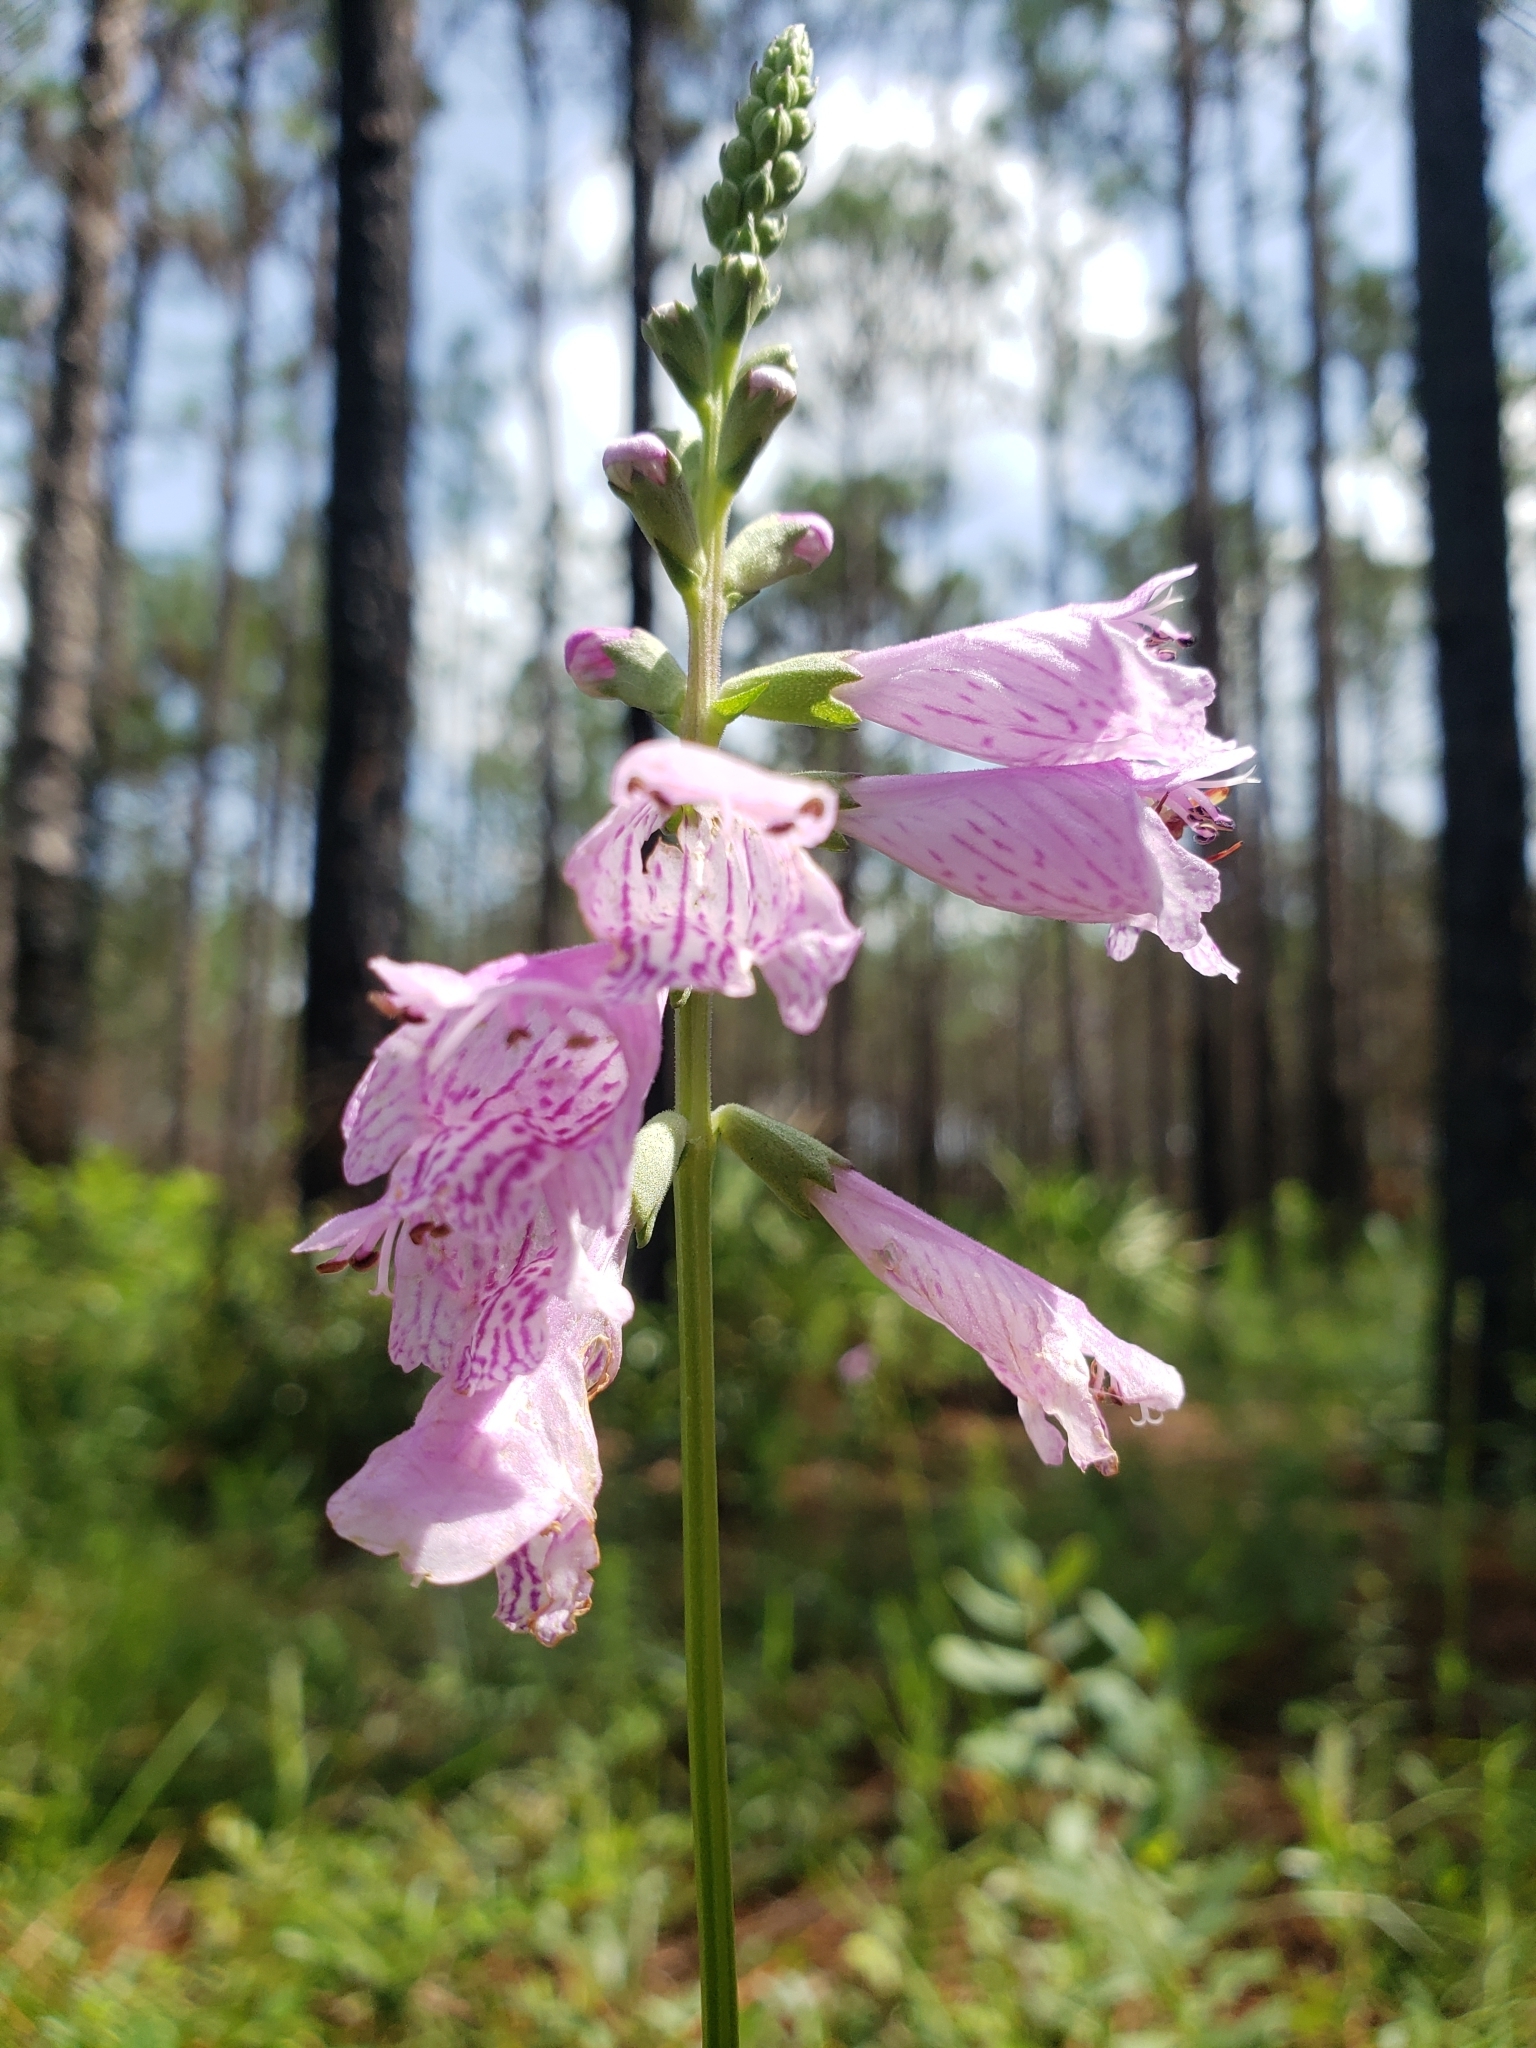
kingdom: Plantae
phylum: Tracheophyta
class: Magnoliopsida
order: Lamiales
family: Lamiaceae
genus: Physostegia
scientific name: Physostegia purpurea
